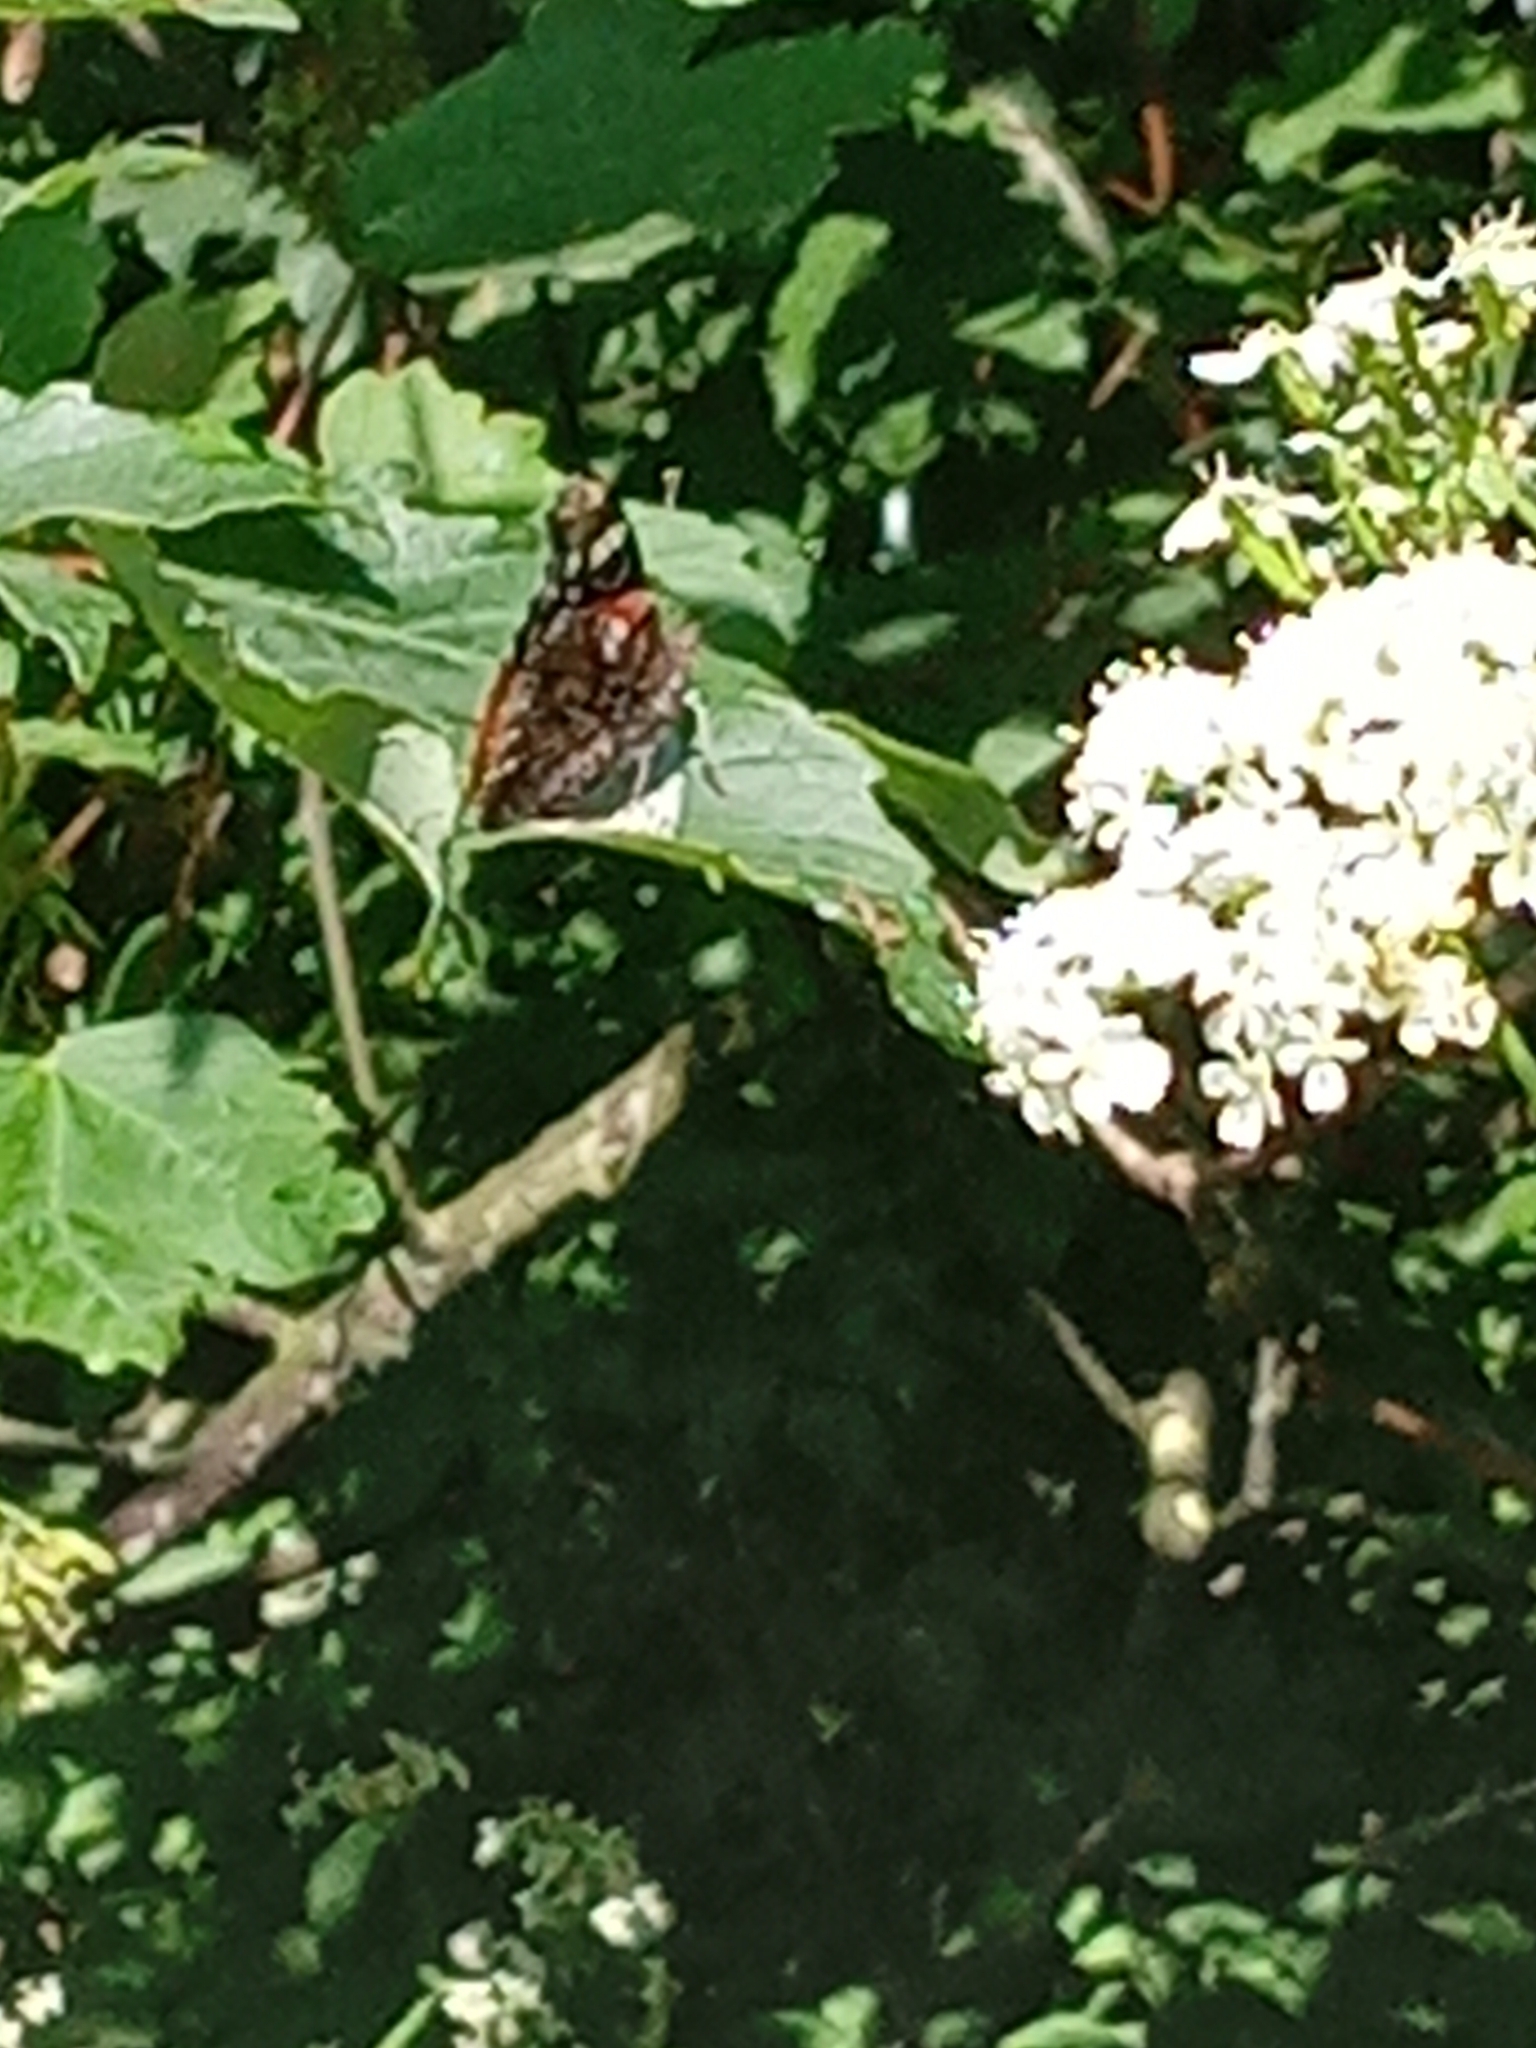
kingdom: Animalia
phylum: Arthropoda
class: Insecta
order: Lepidoptera
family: Nymphalidae
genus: Vanessa
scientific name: Vanessa atalanta
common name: Red admiral
